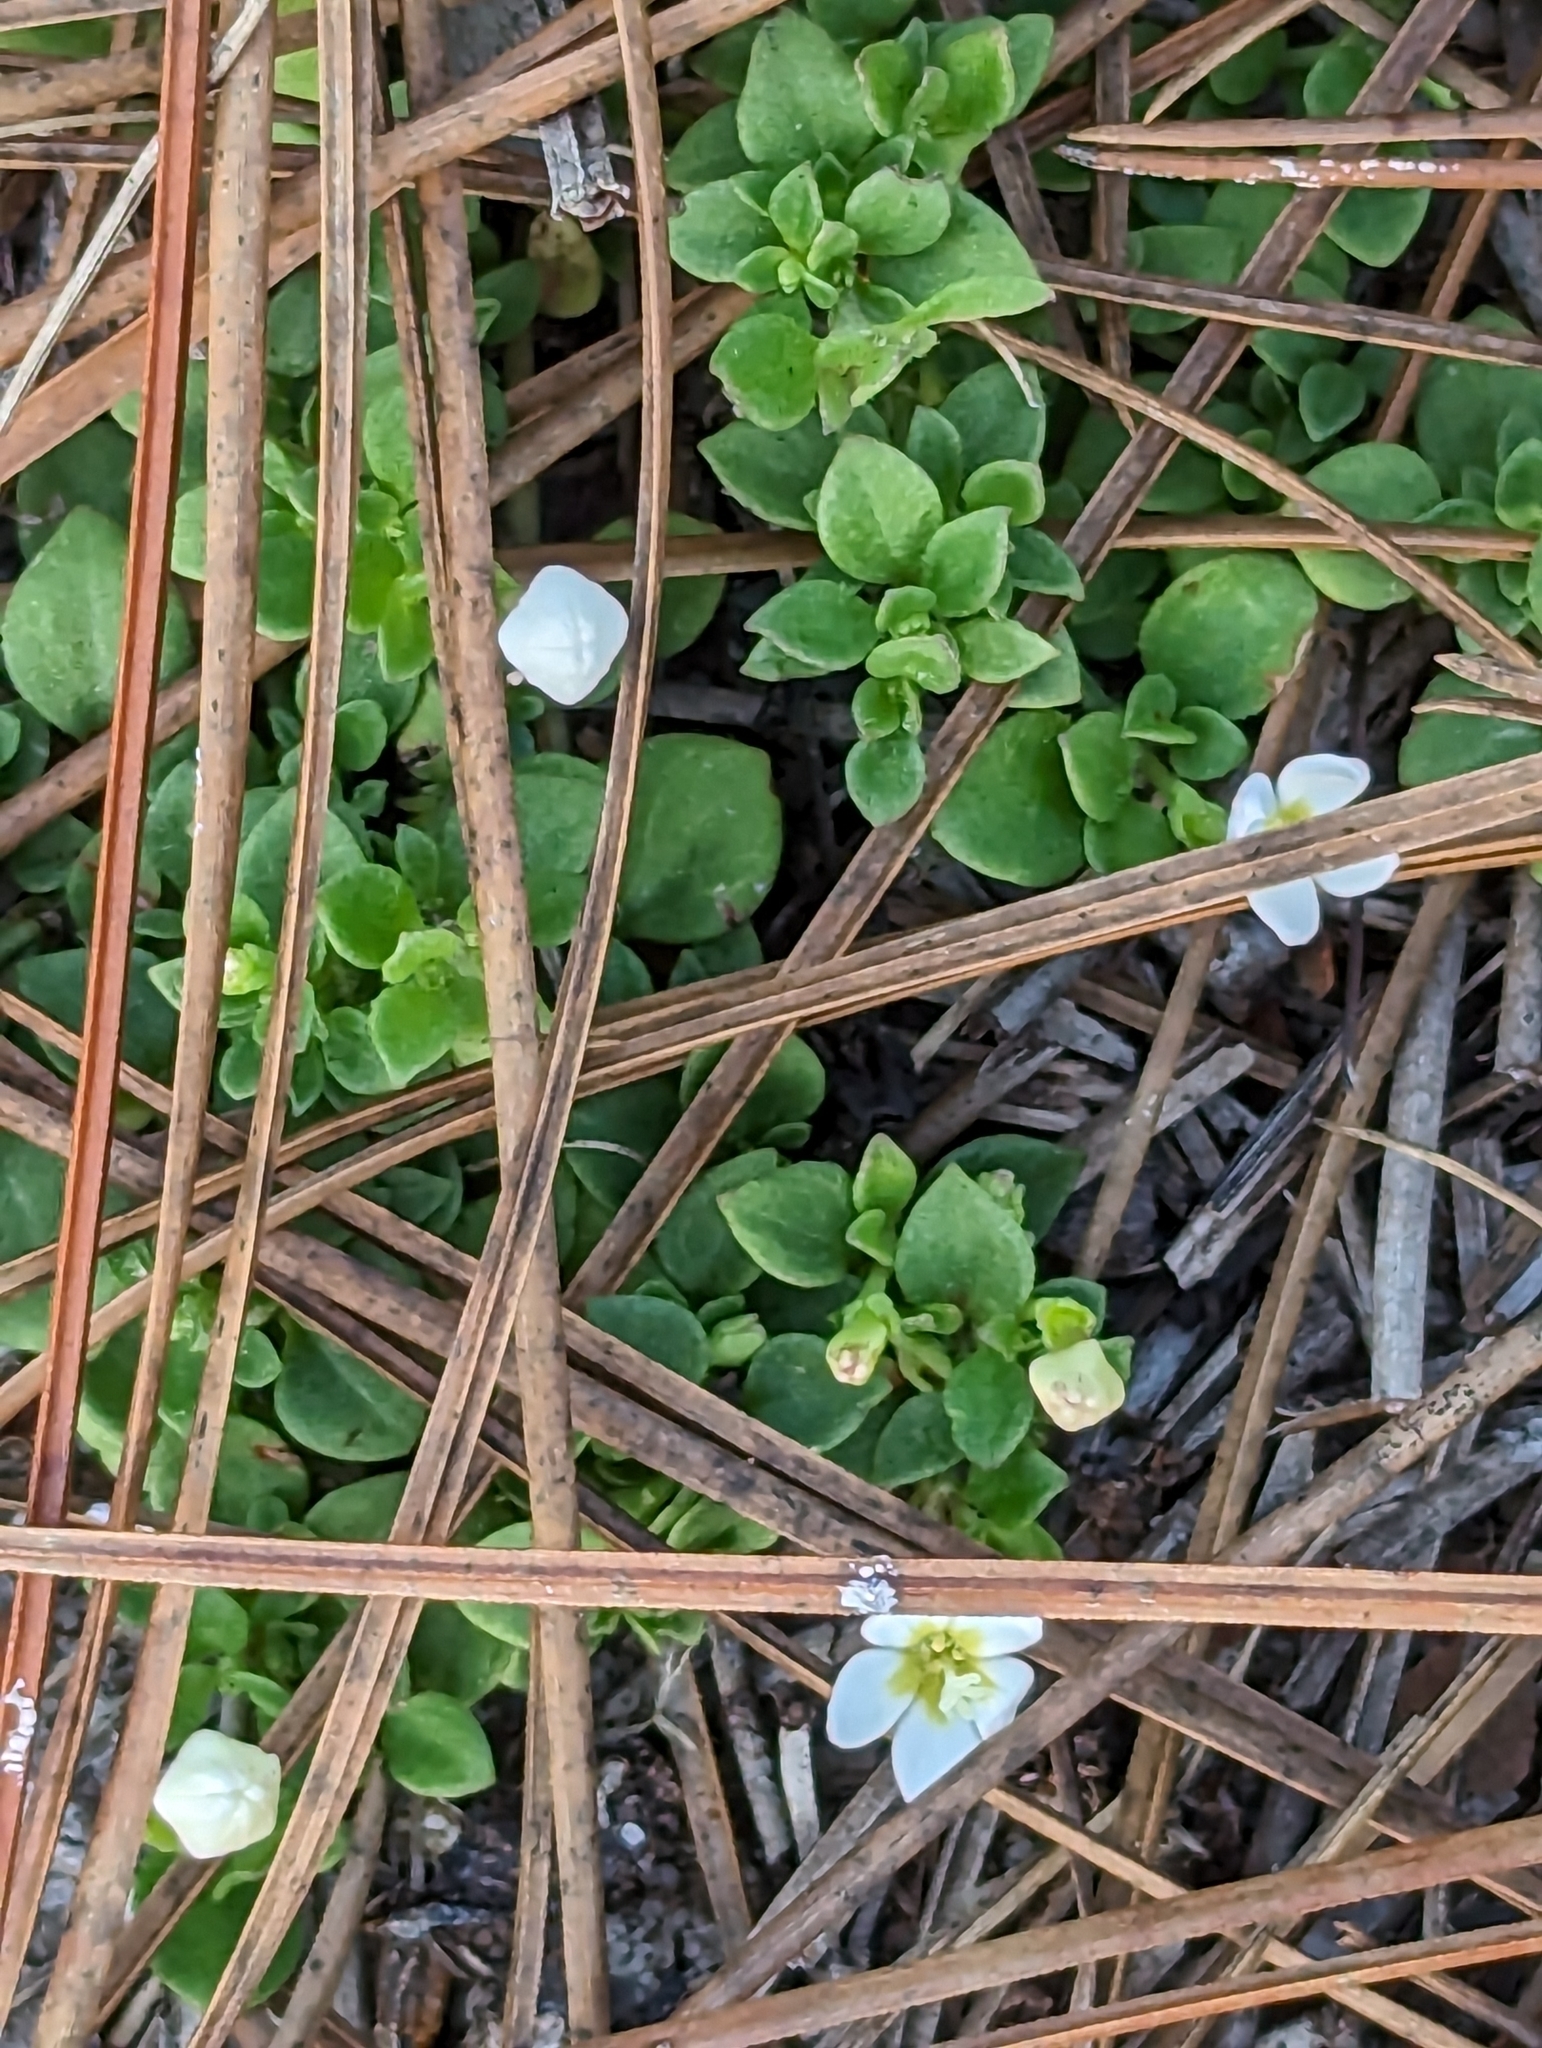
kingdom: Plantae
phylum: Tracheophyta
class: Magnoliopsida
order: Gentianales
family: Rubiaceae
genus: Houstonia
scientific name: Houstonia procumbens
